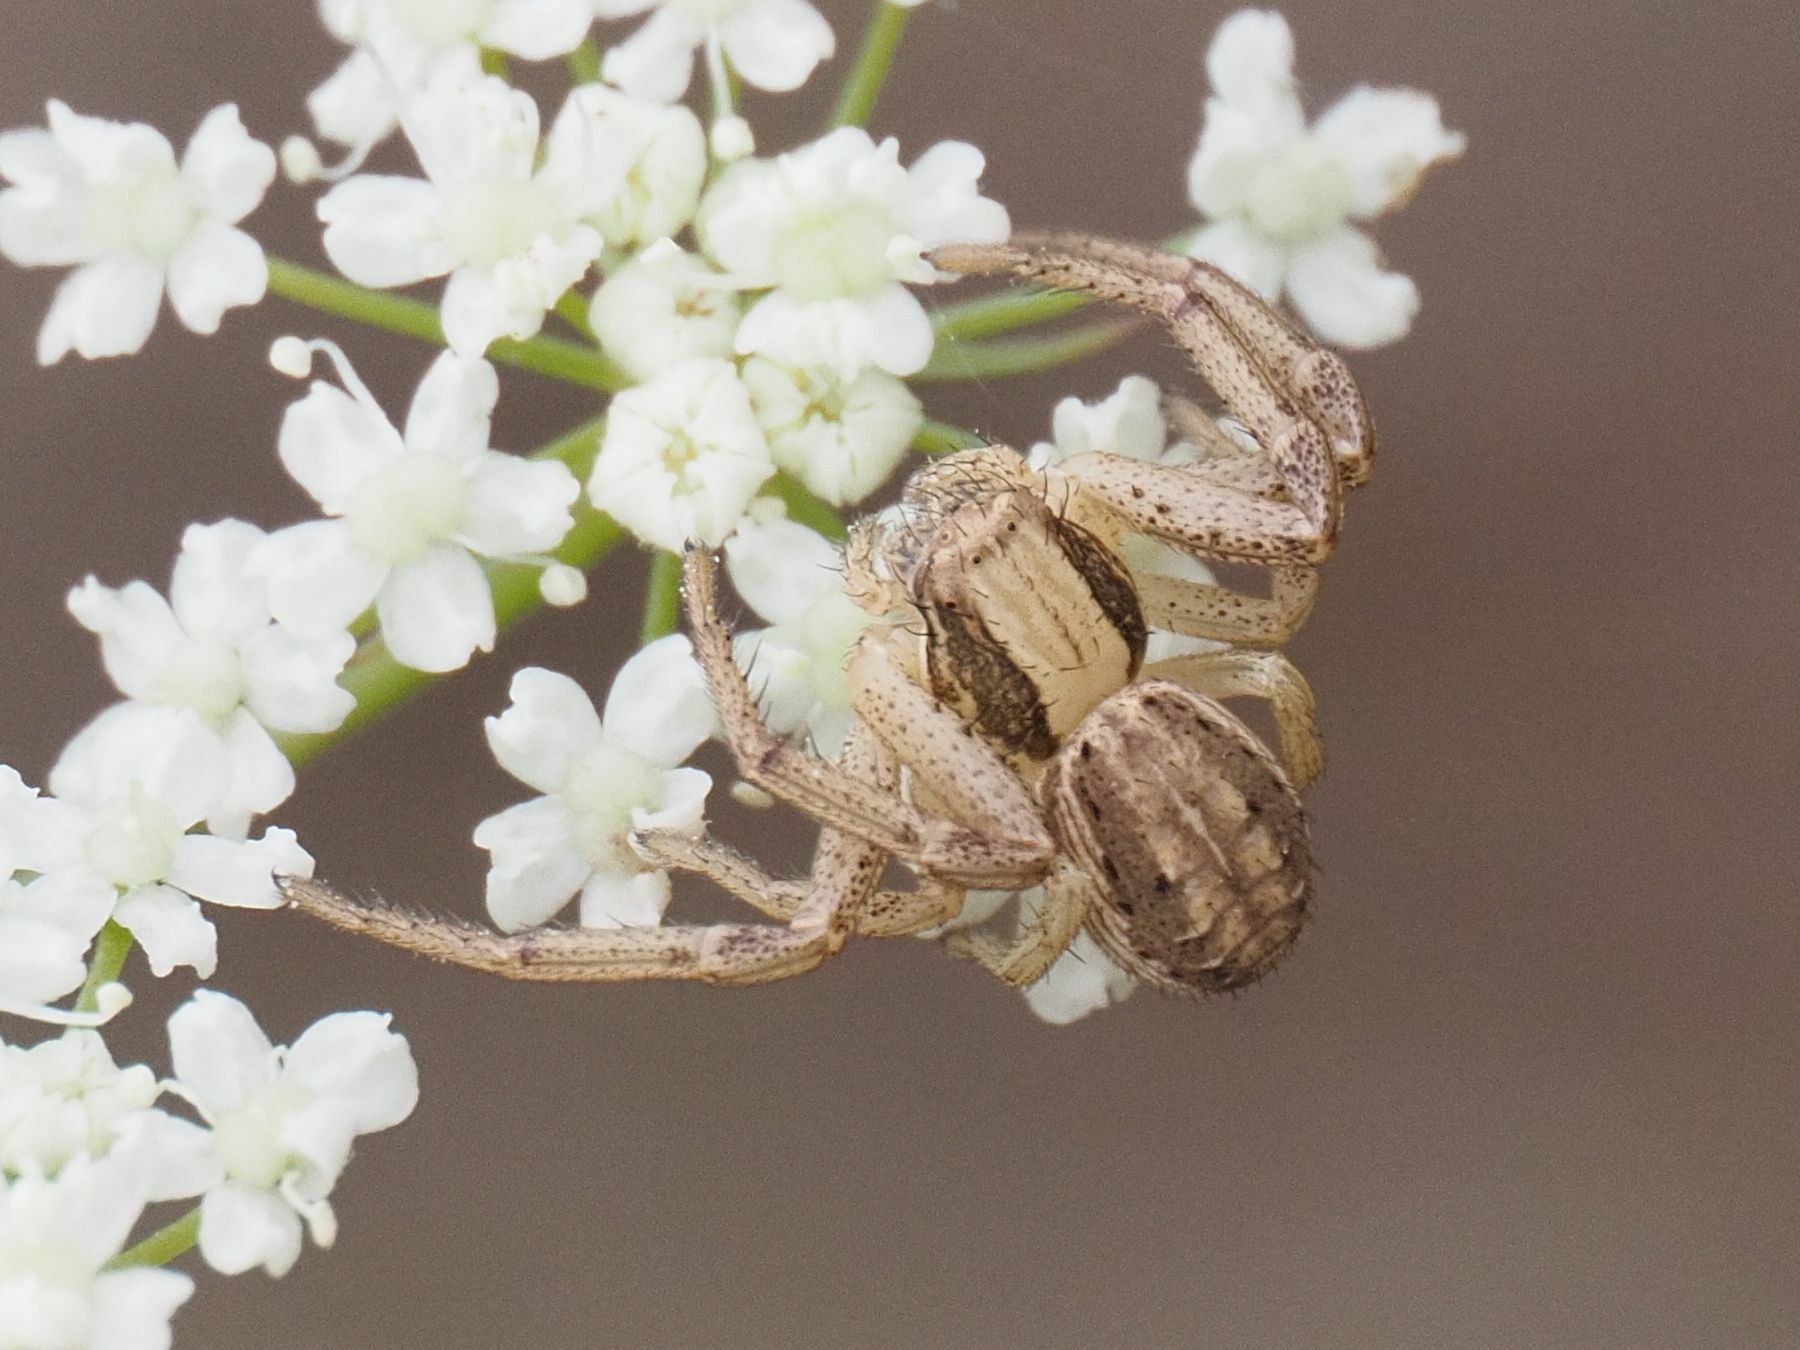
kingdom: Animalia
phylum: Arthropoda
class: Arachnida
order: Araneae
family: Thomisidae
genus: Spiracme
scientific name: Spiracme striatipes
